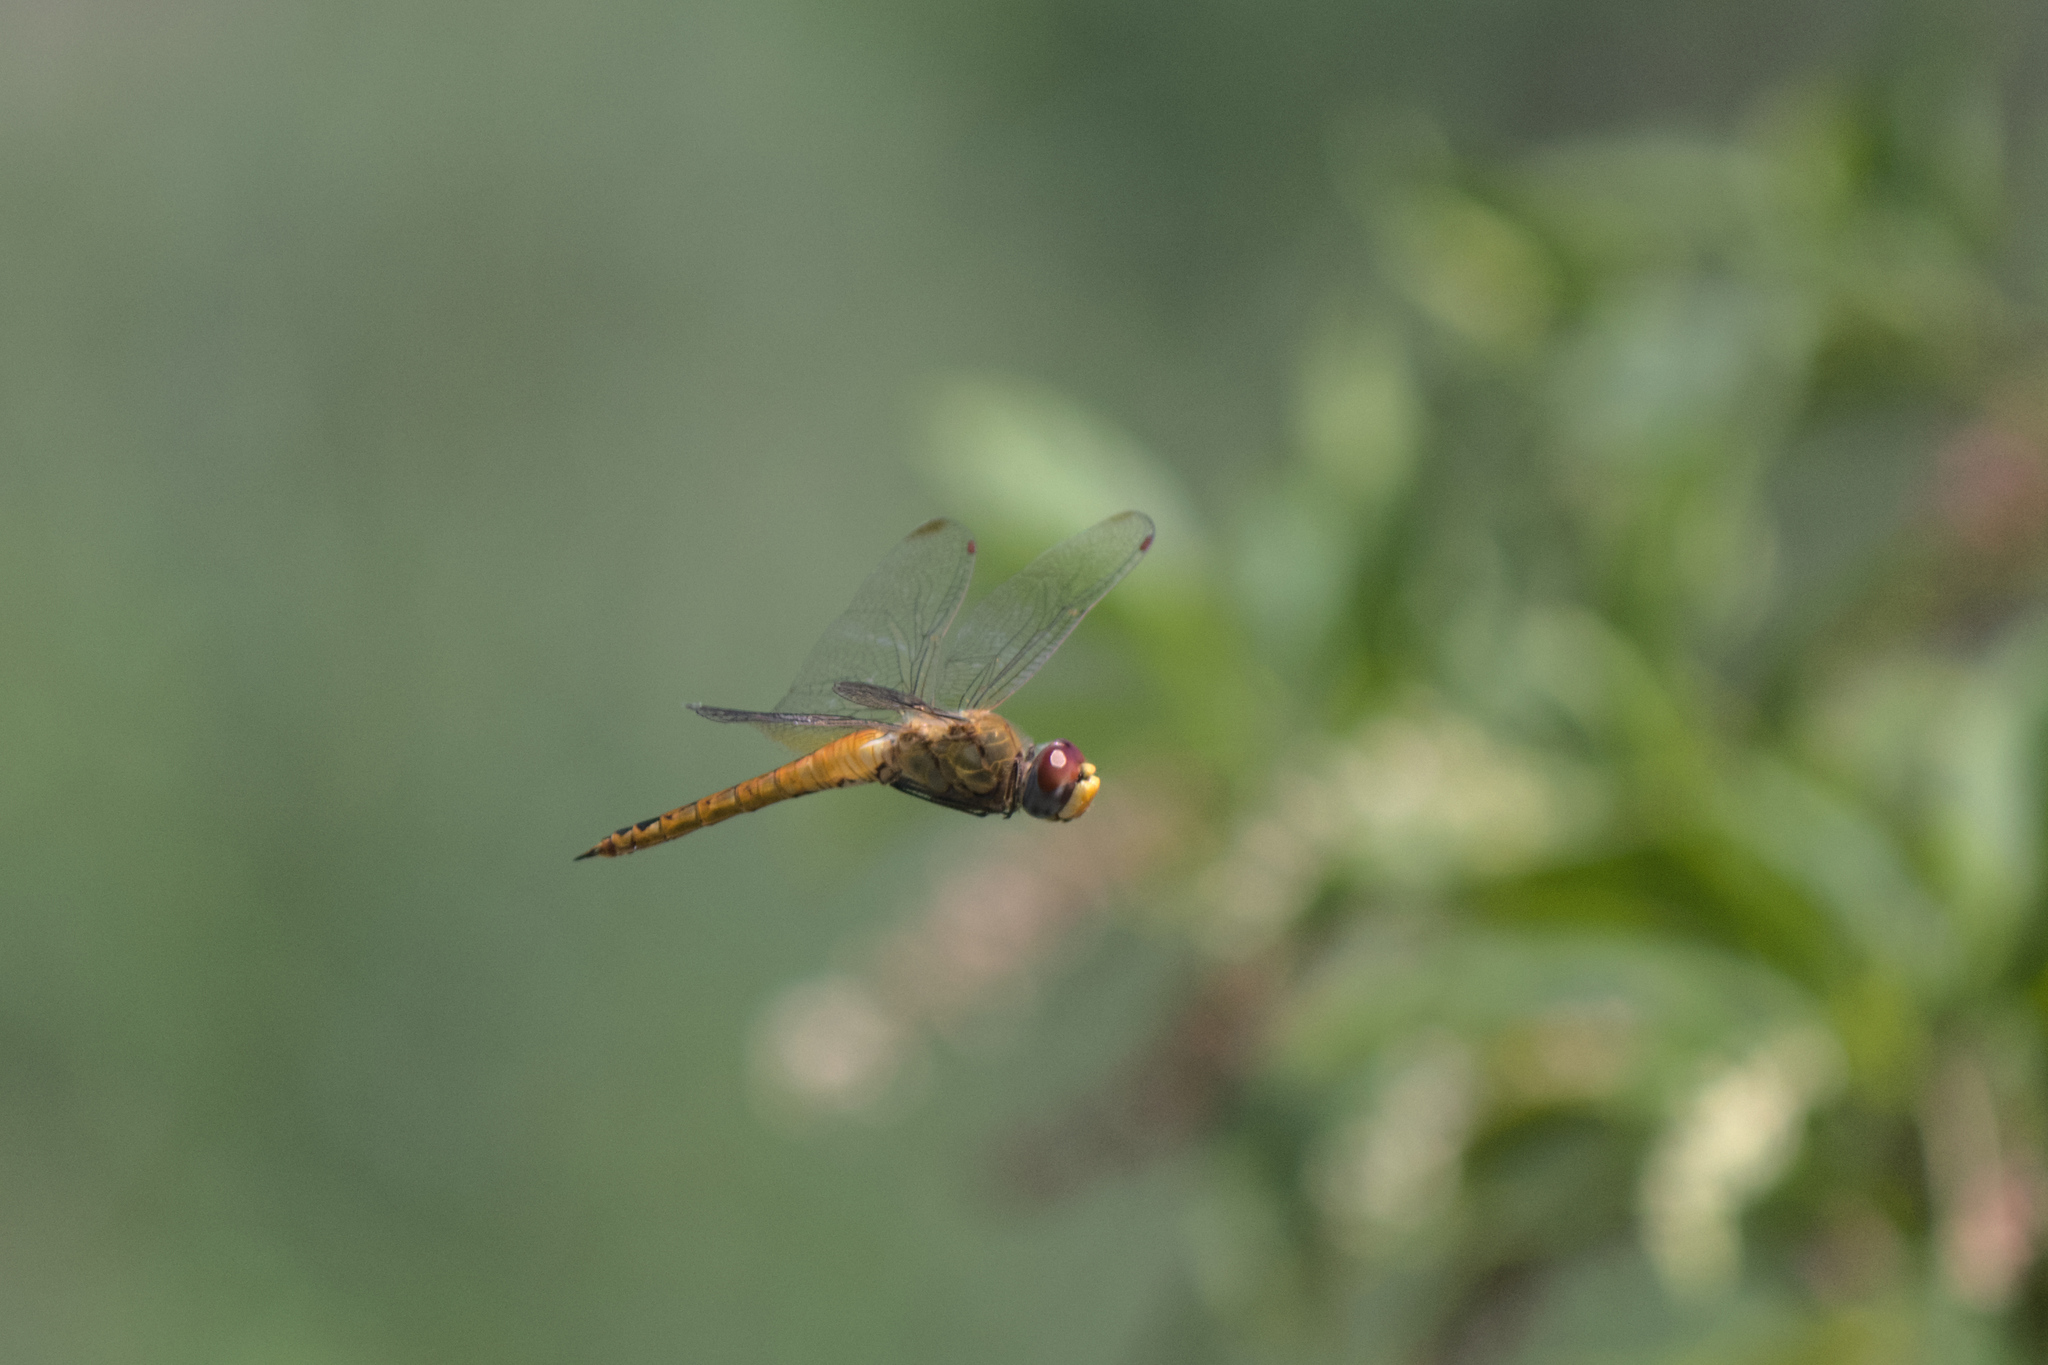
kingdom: Animalia
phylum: Arthropoda
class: Insecta
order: Odonata
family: Libellulidae
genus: Pantala
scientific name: Pantala flavescens
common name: Wandering glider
